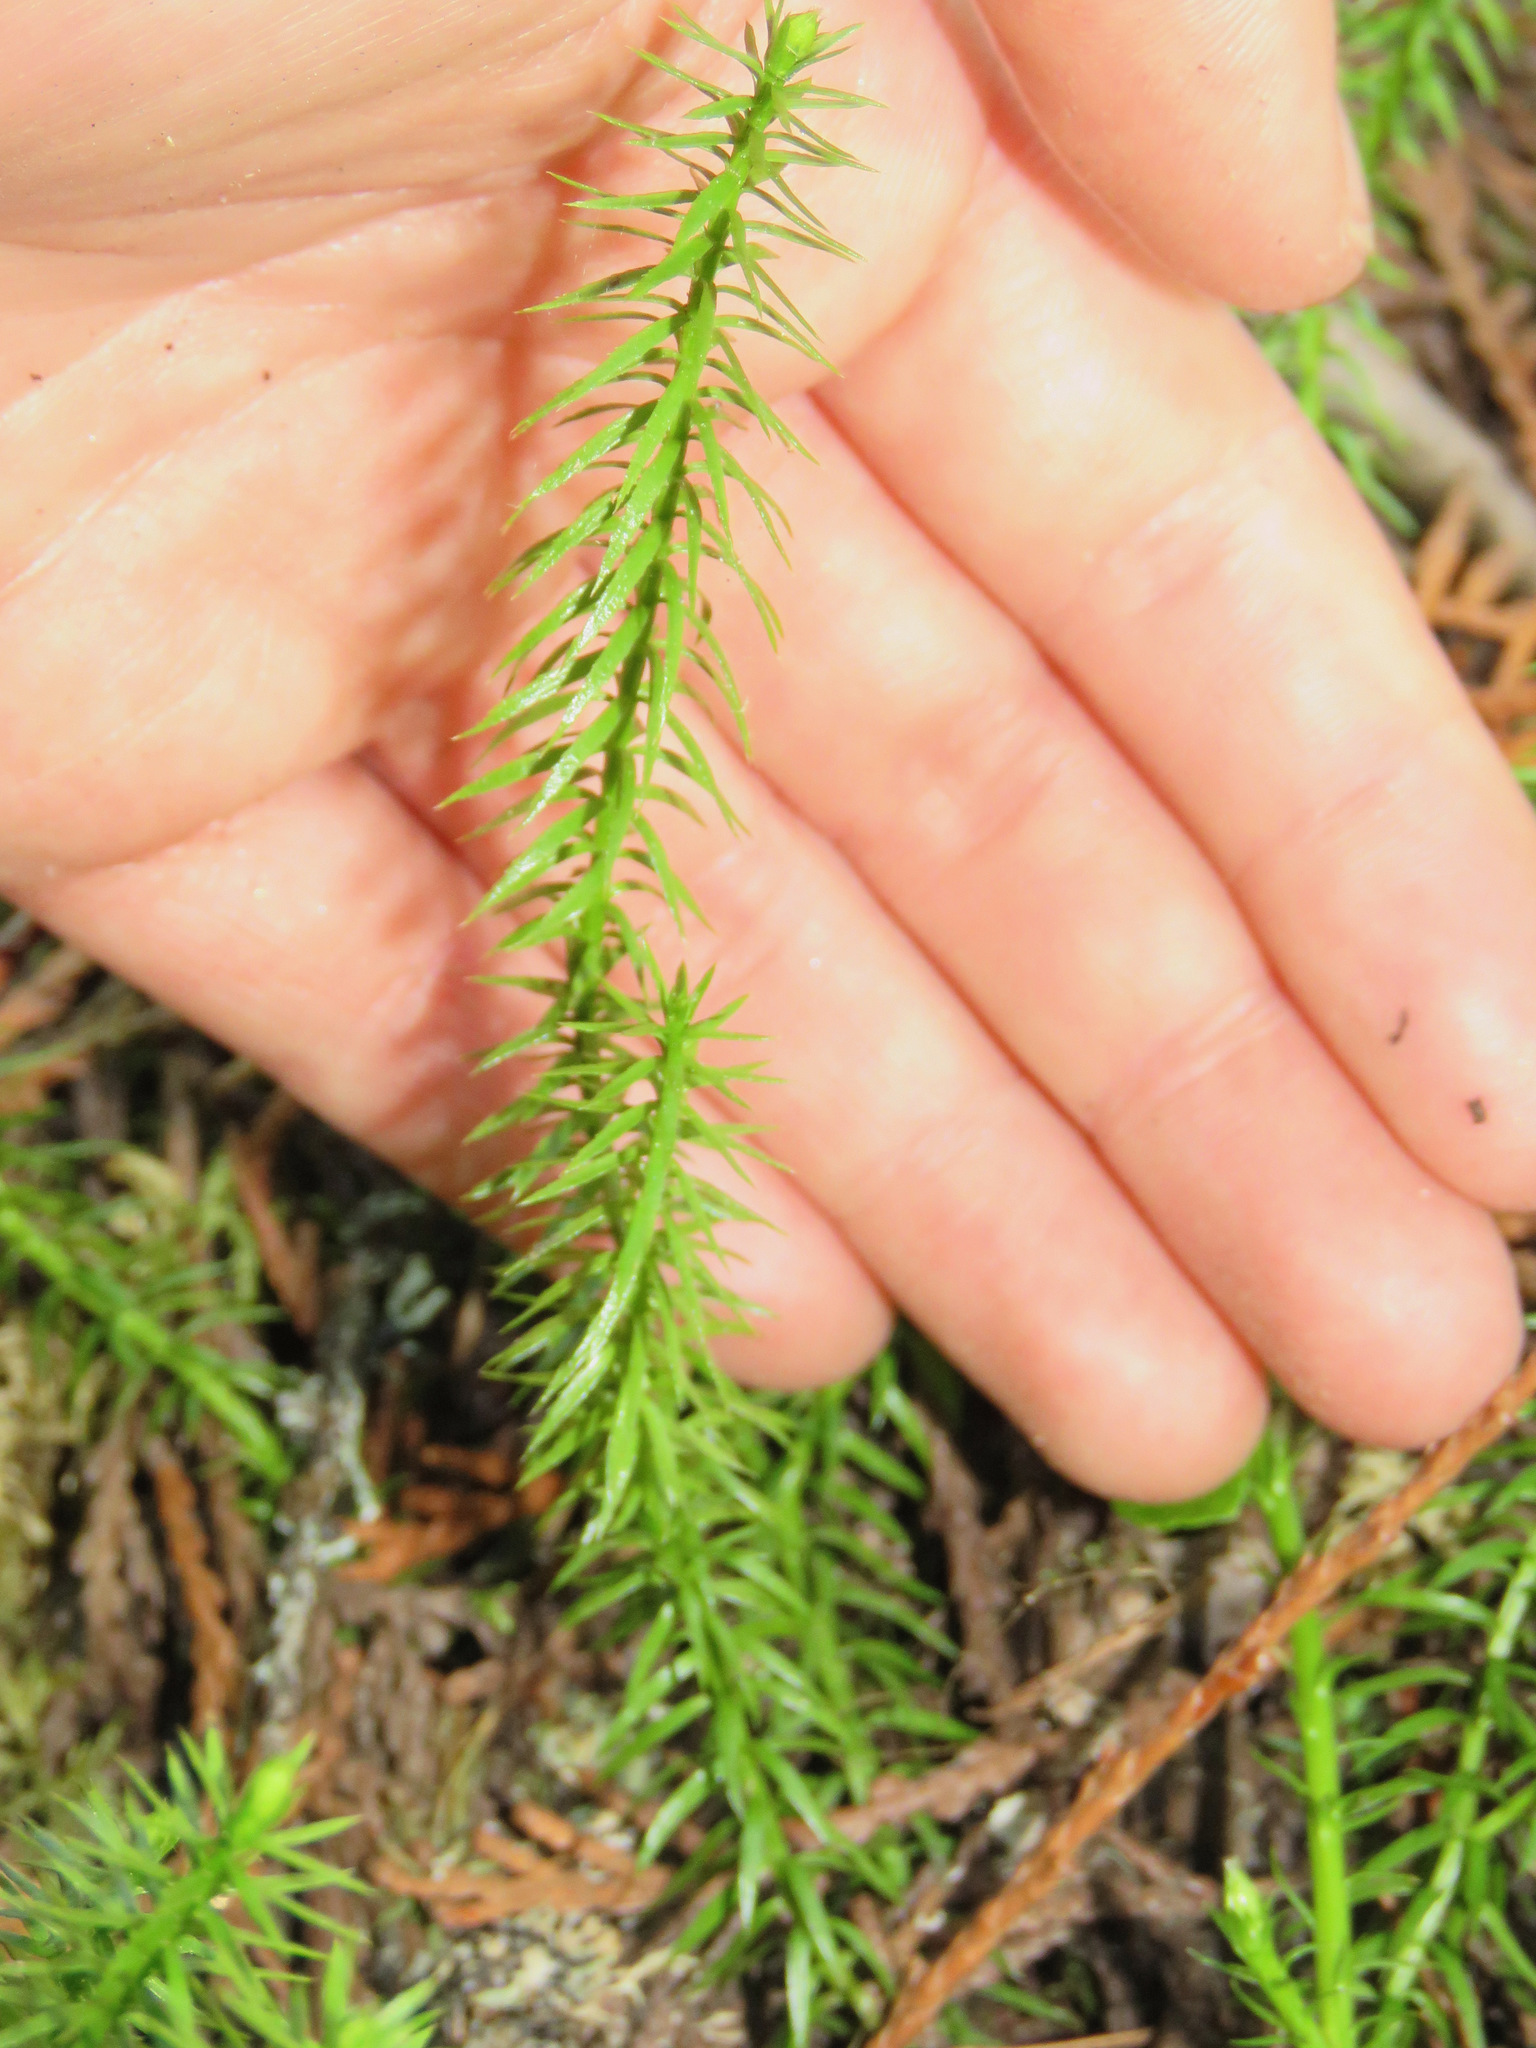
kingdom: Plantae
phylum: Tracheophyta
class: Lycopodiopsida
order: Lycopodiales
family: Lycopodiaceae
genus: Spinulum
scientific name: Spinulum annotinum
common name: Interrupted club-moss
